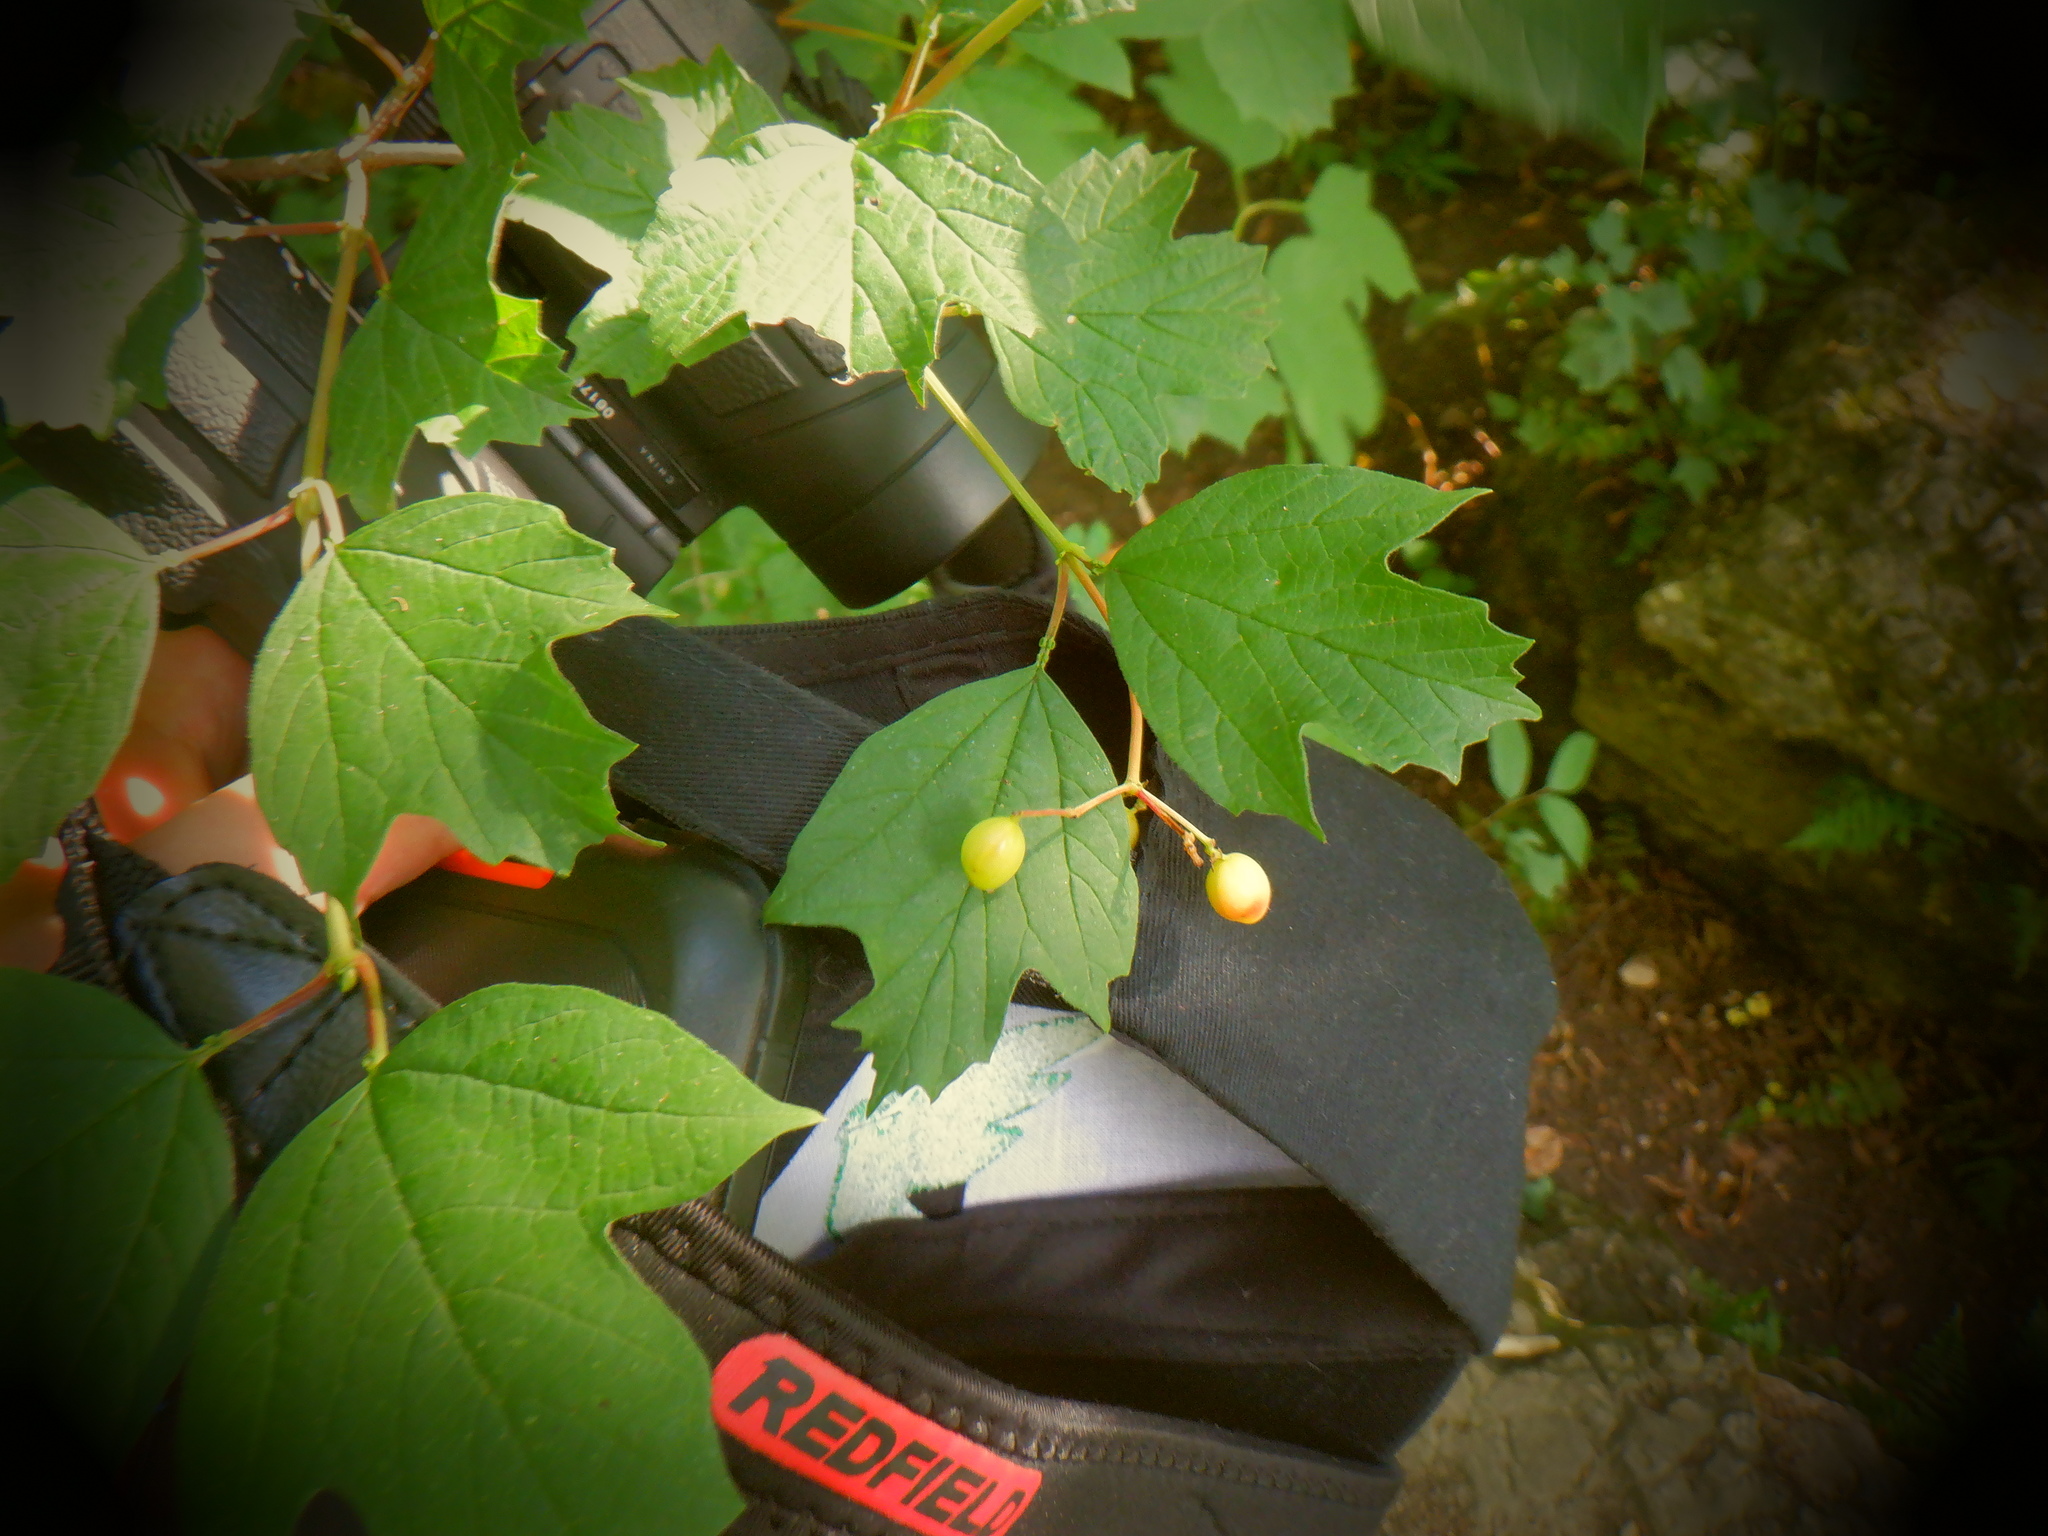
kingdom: Plantae
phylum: Tracheophyta
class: Magnoliopsida
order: Dipsacales
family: Viburnaceae
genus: Viburnum
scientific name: Viburnum opulus
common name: Guelder-rose
